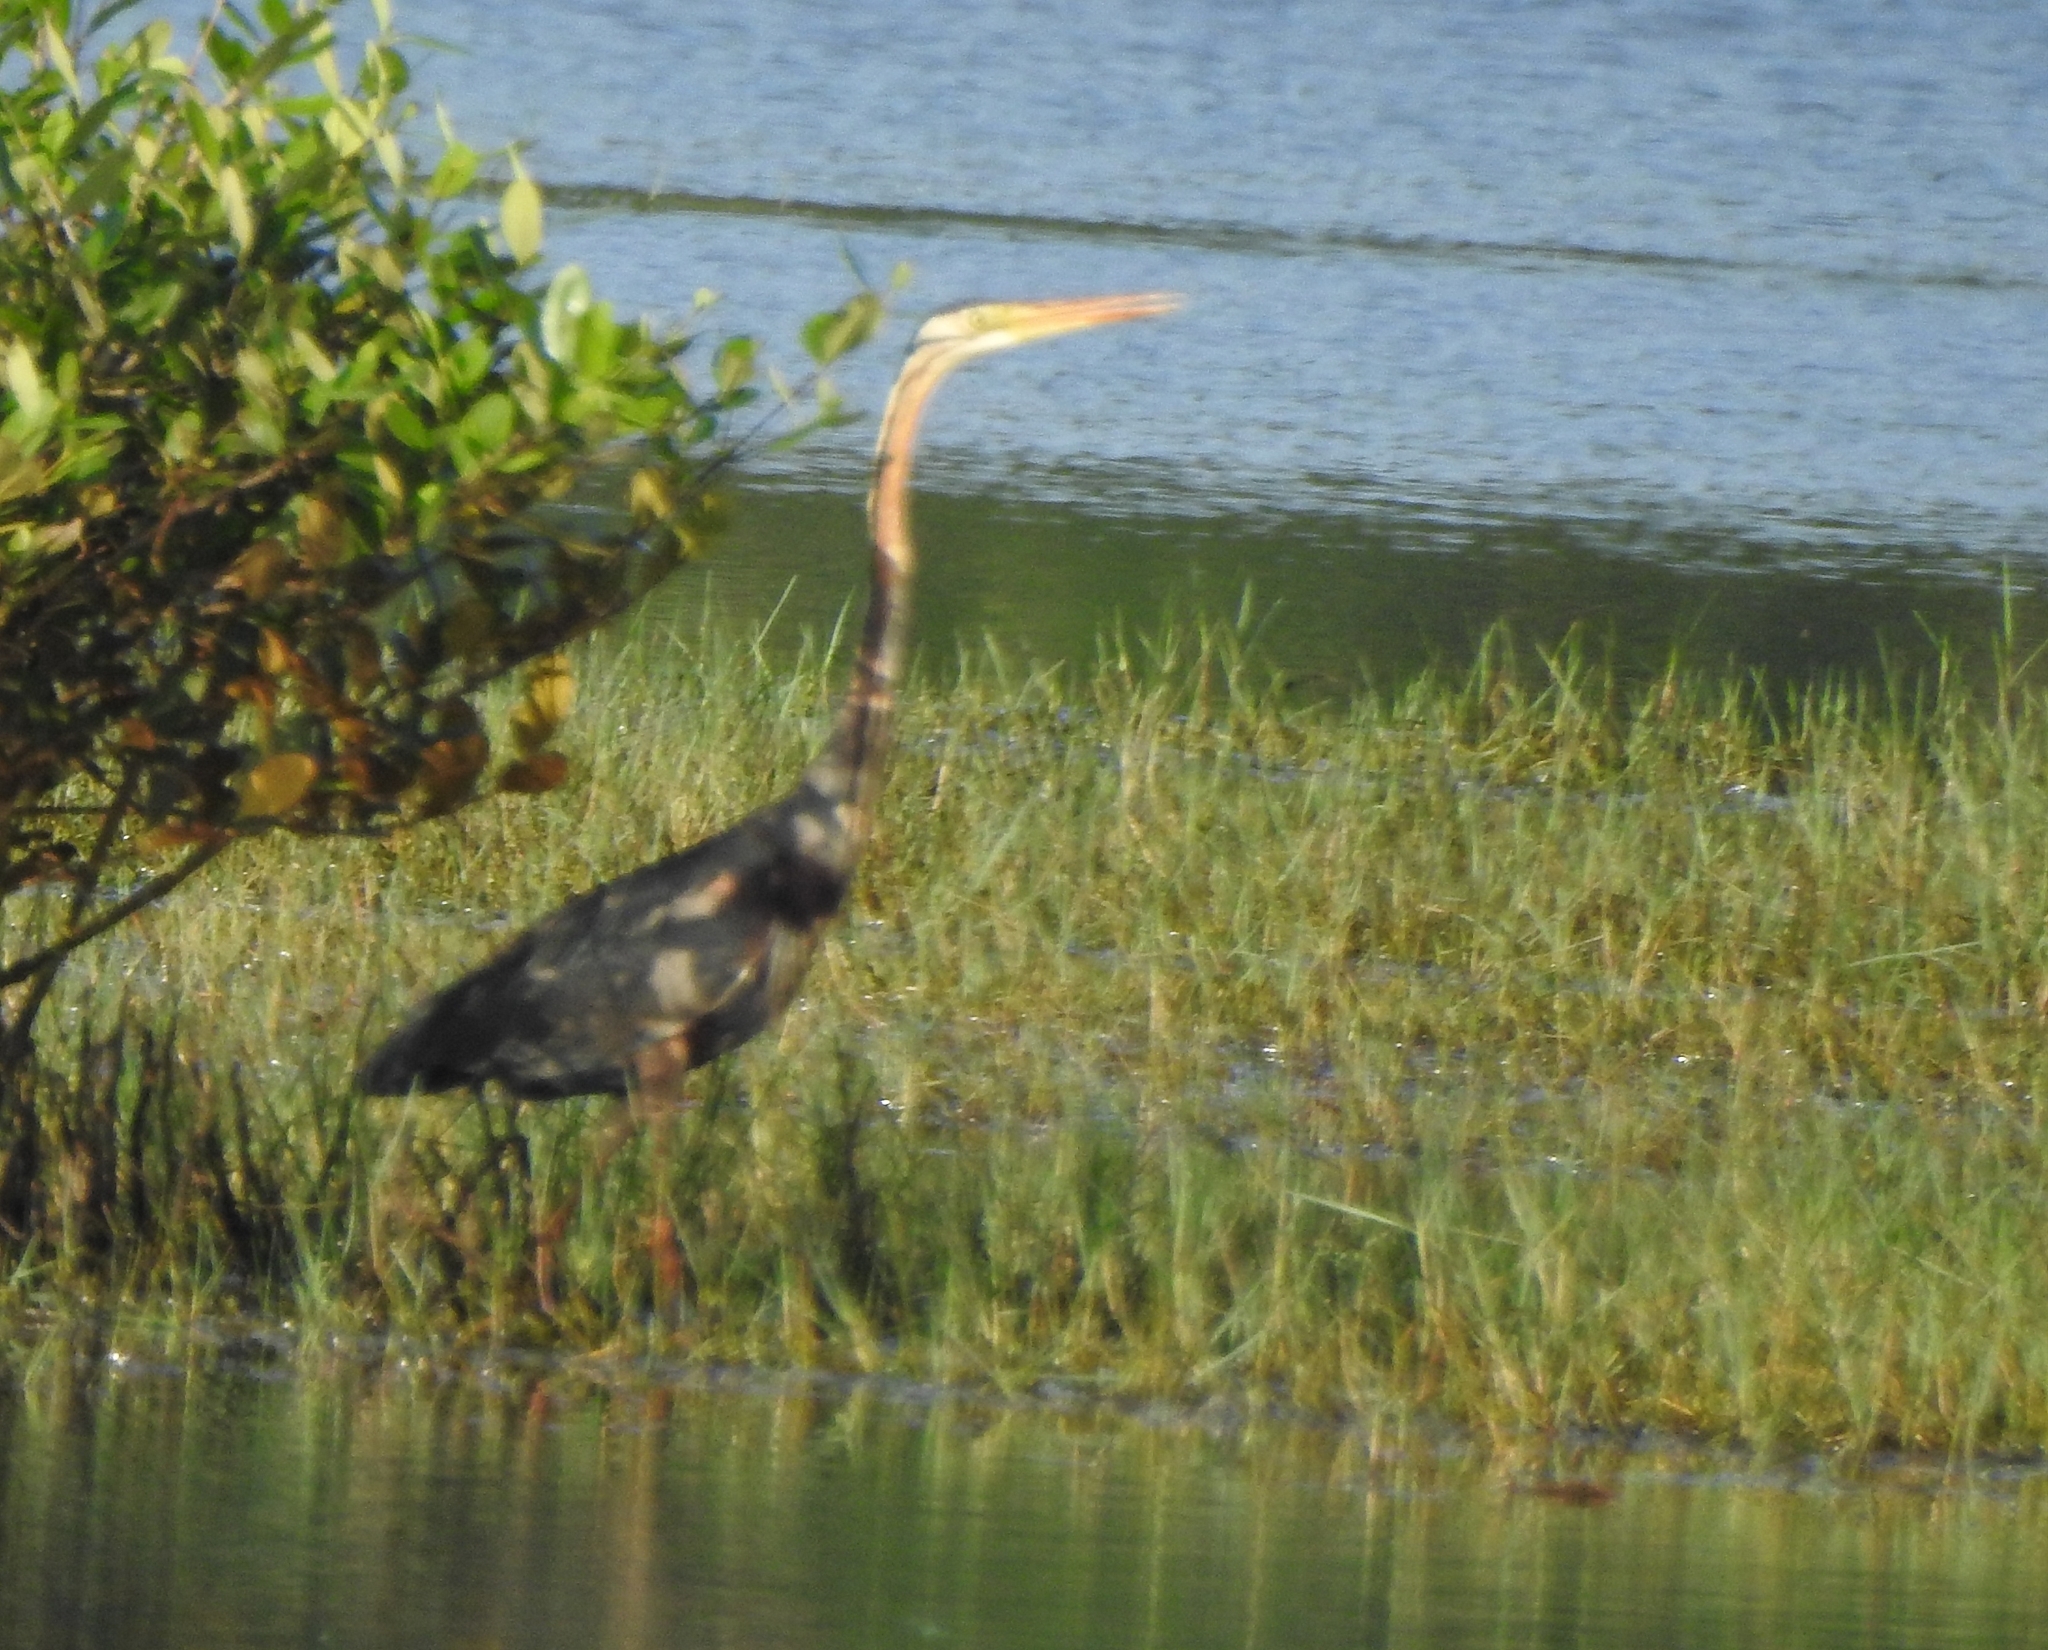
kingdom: Animalia
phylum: Chordata
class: Aves
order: Pelecaniformes
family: Ardeidae
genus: Ardea
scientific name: Ardea purpurea
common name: Purple heron
